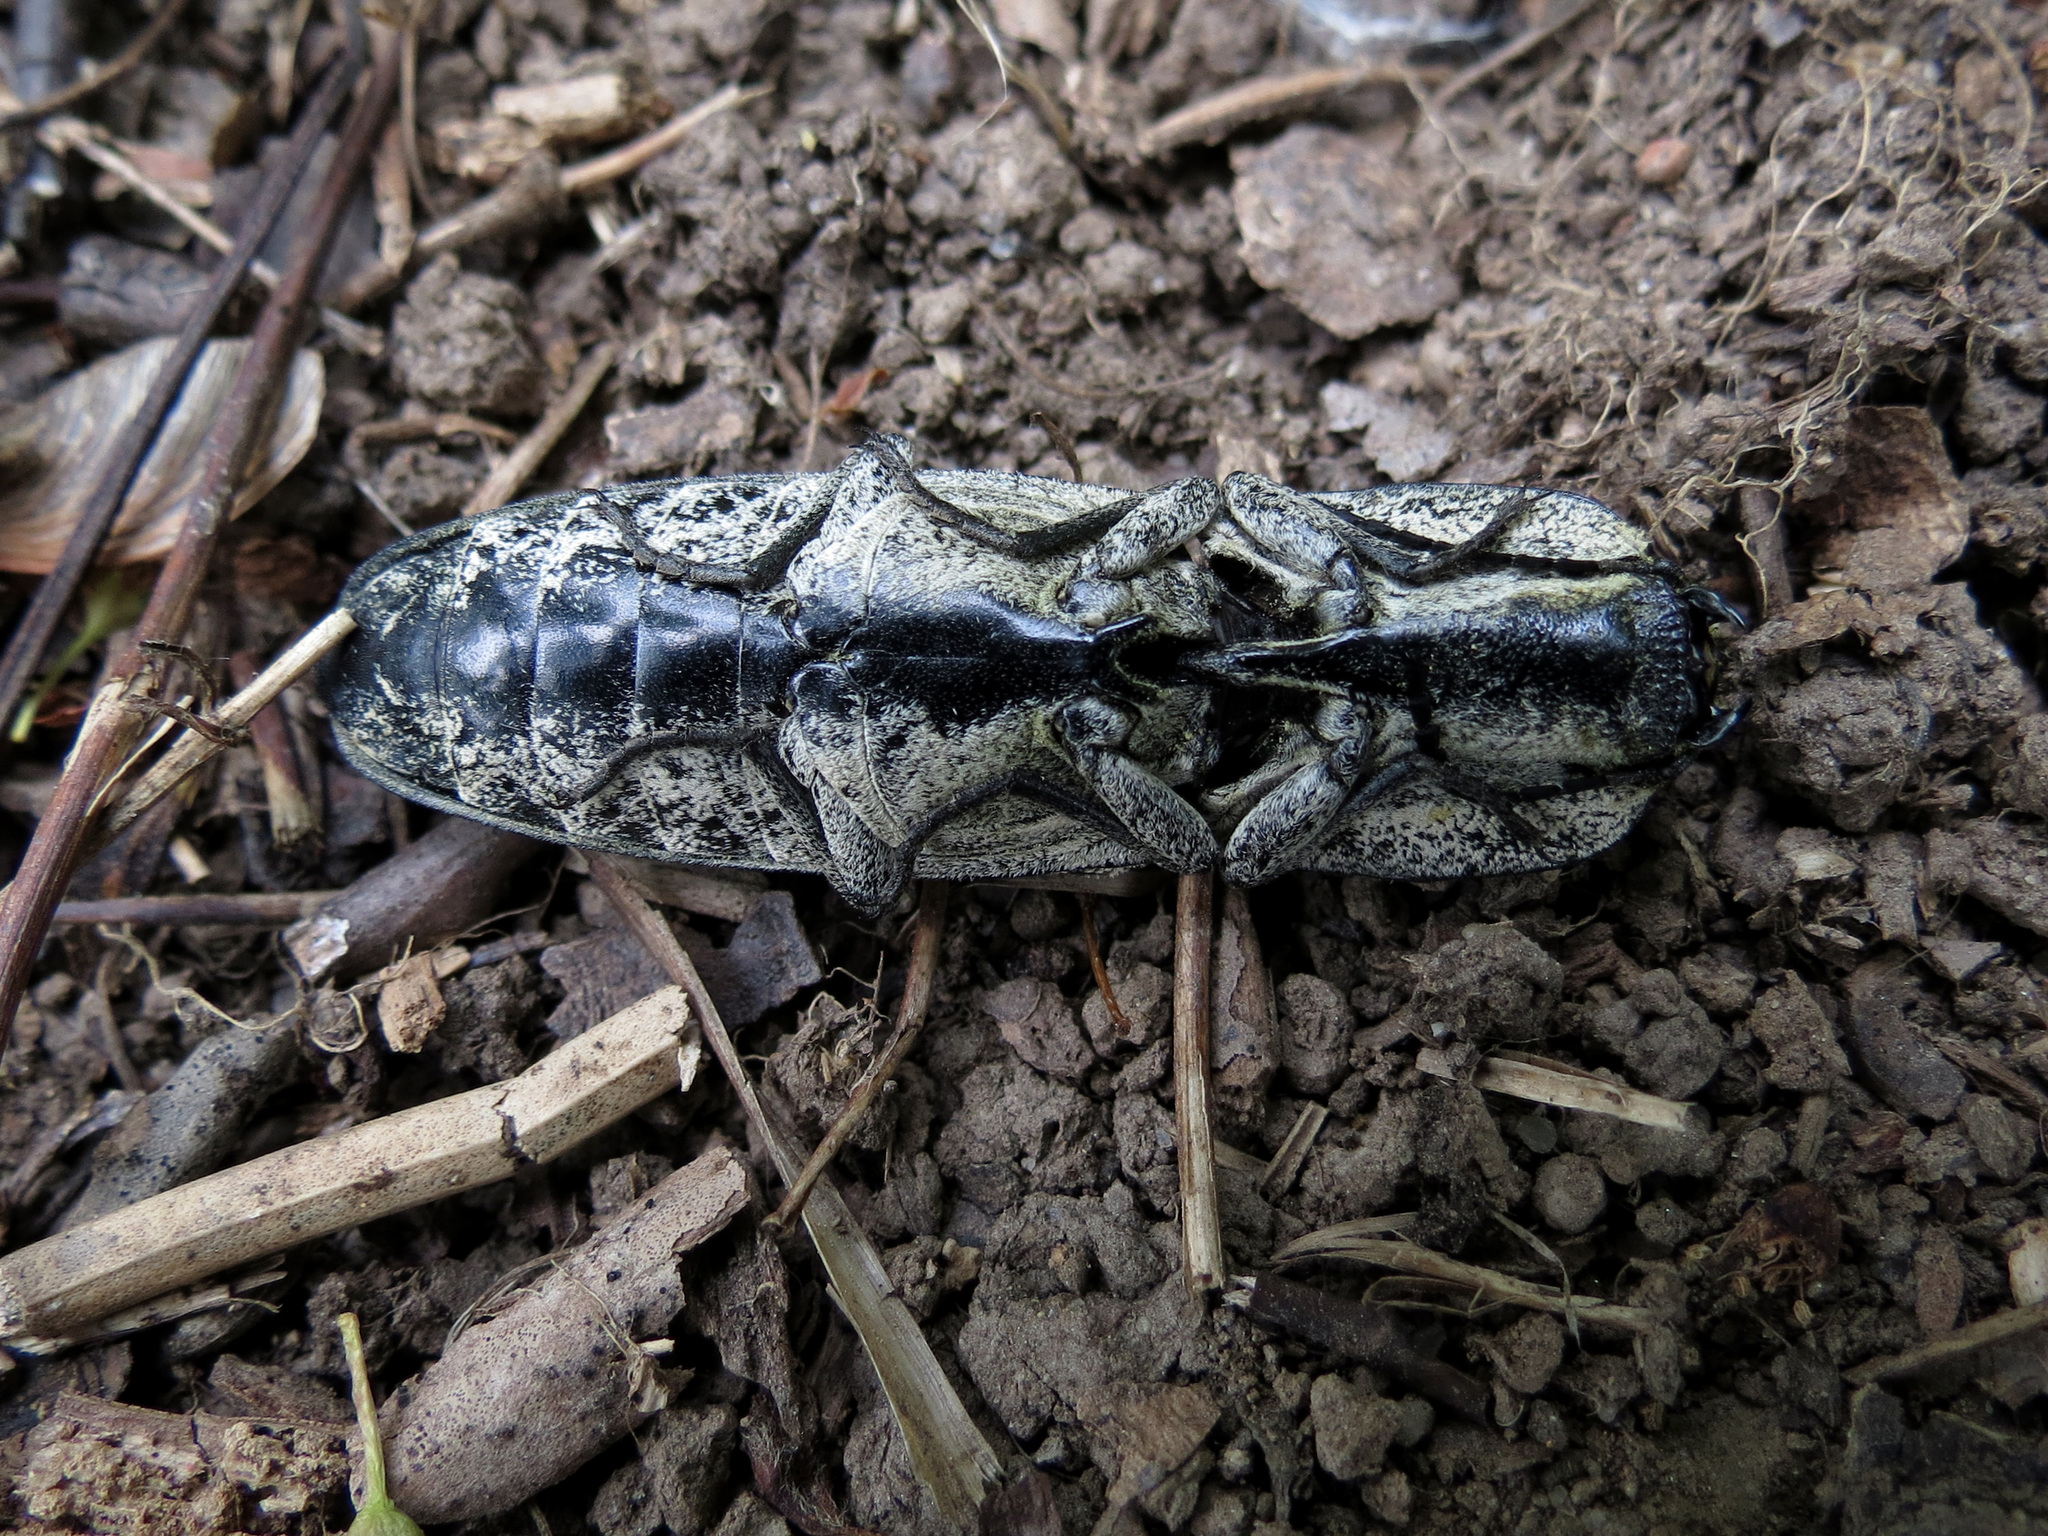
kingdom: Animalia
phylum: Arthropoda
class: Insecta
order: Coleoptera
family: Elateridae
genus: Alaus
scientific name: Alaus oculatus
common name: Eastern eyed click beetle
